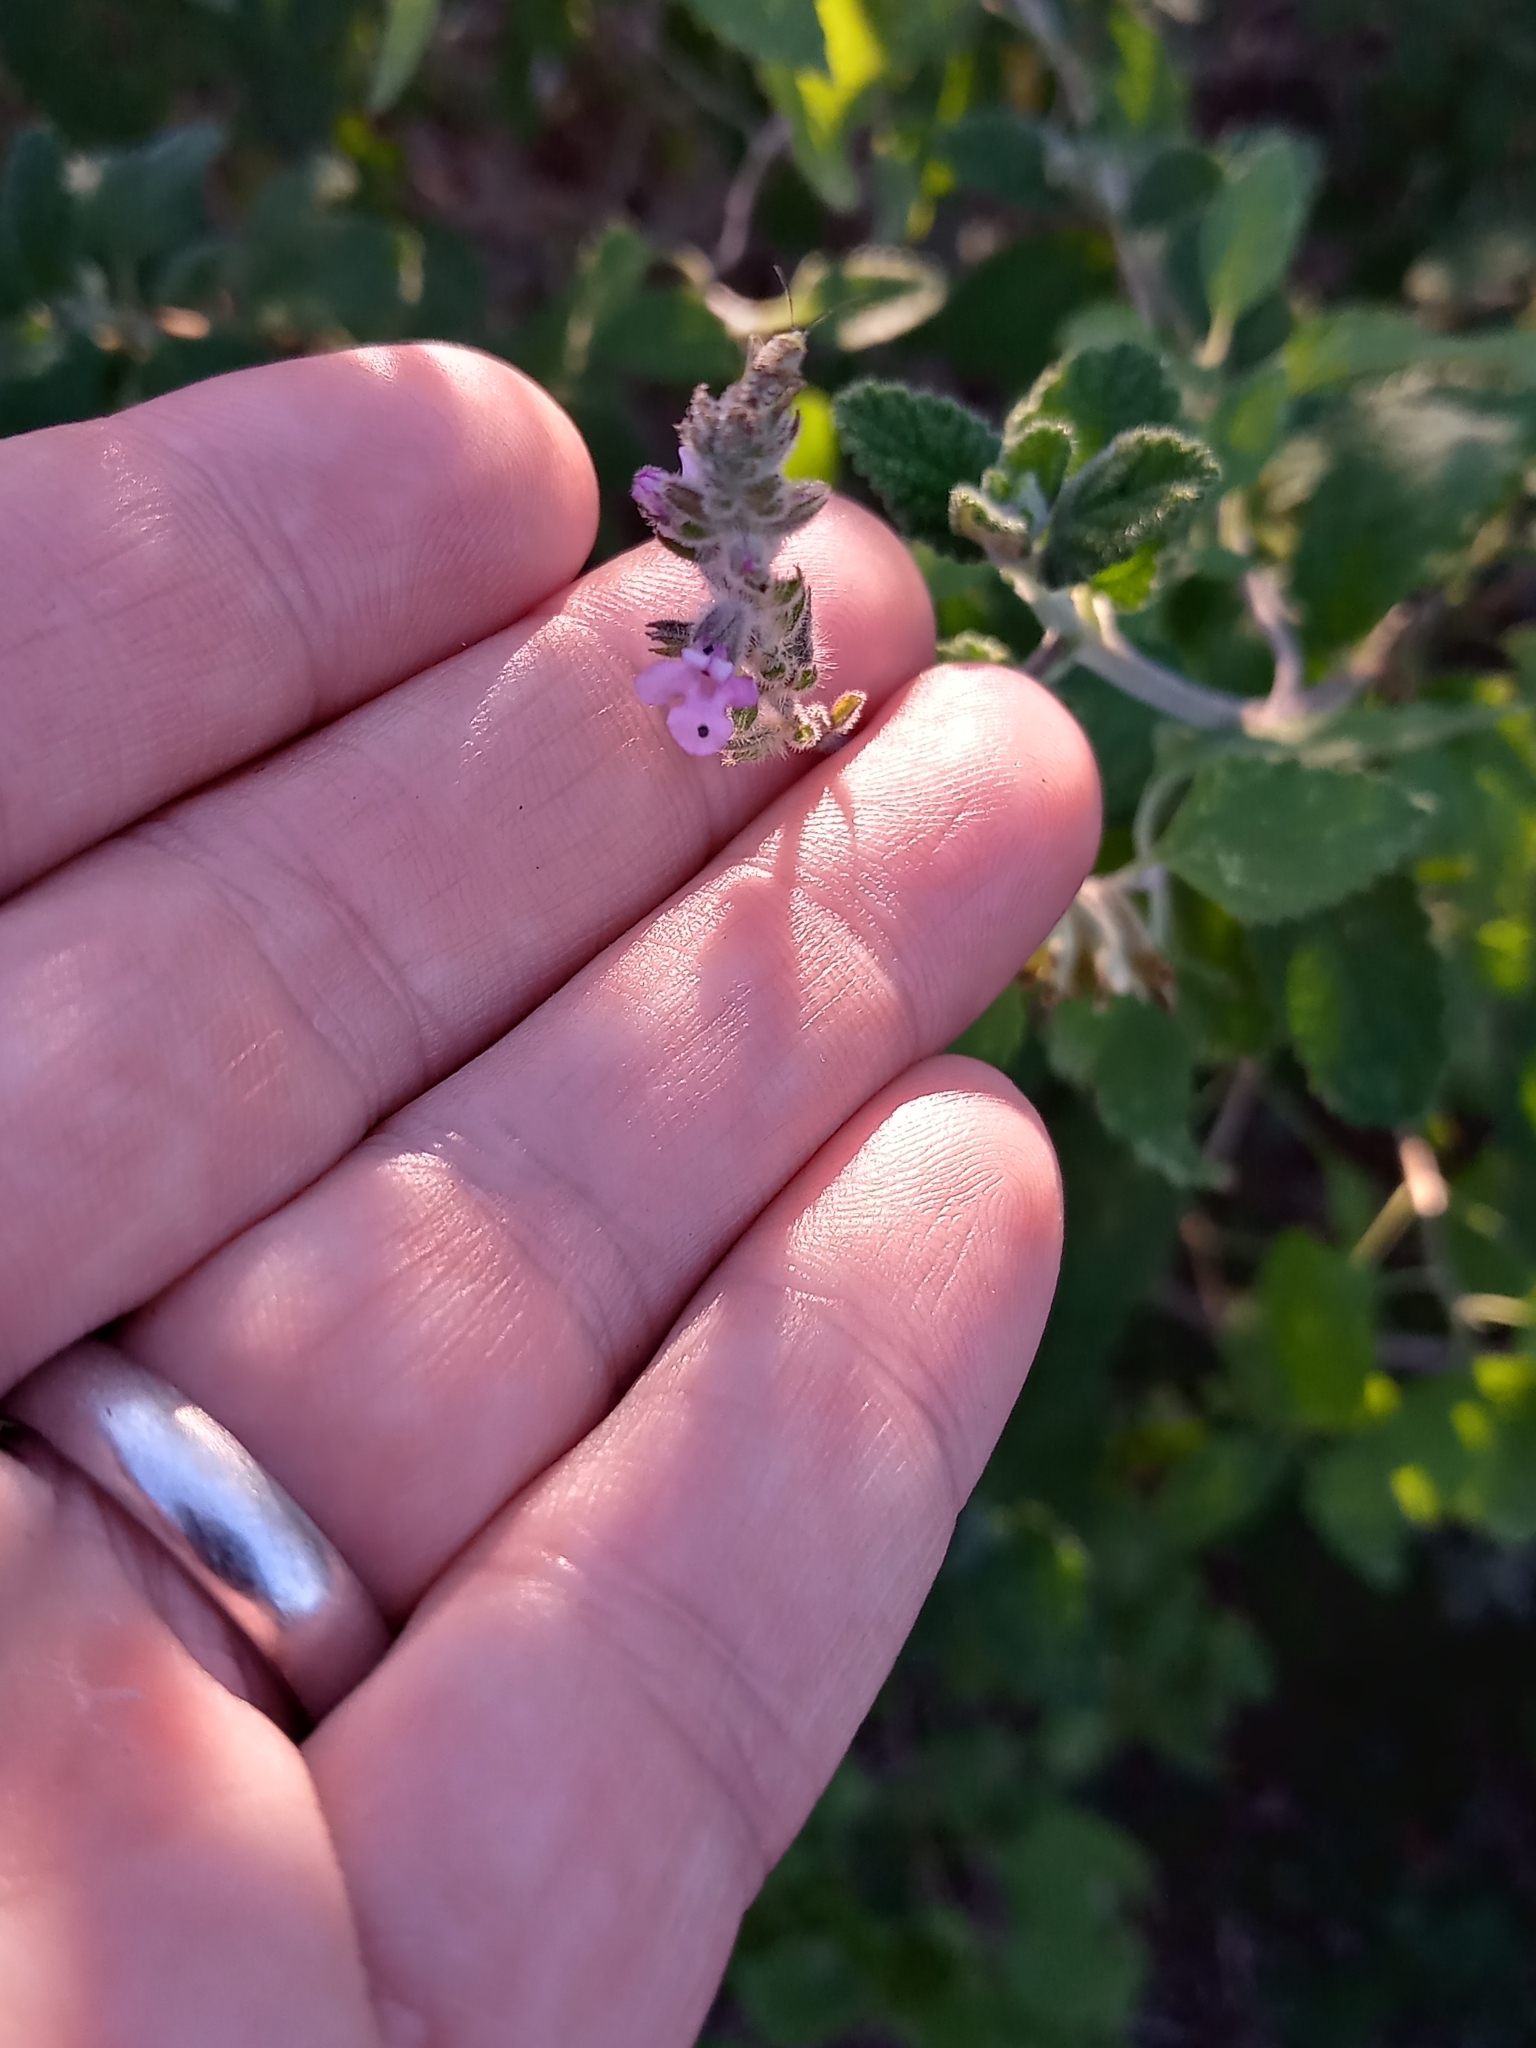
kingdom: Plantae
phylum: Tracheophyta
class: Magnoliopsida
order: Lamiales
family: Verbenaceae
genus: Aloysia
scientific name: Aloysia macrostachya
